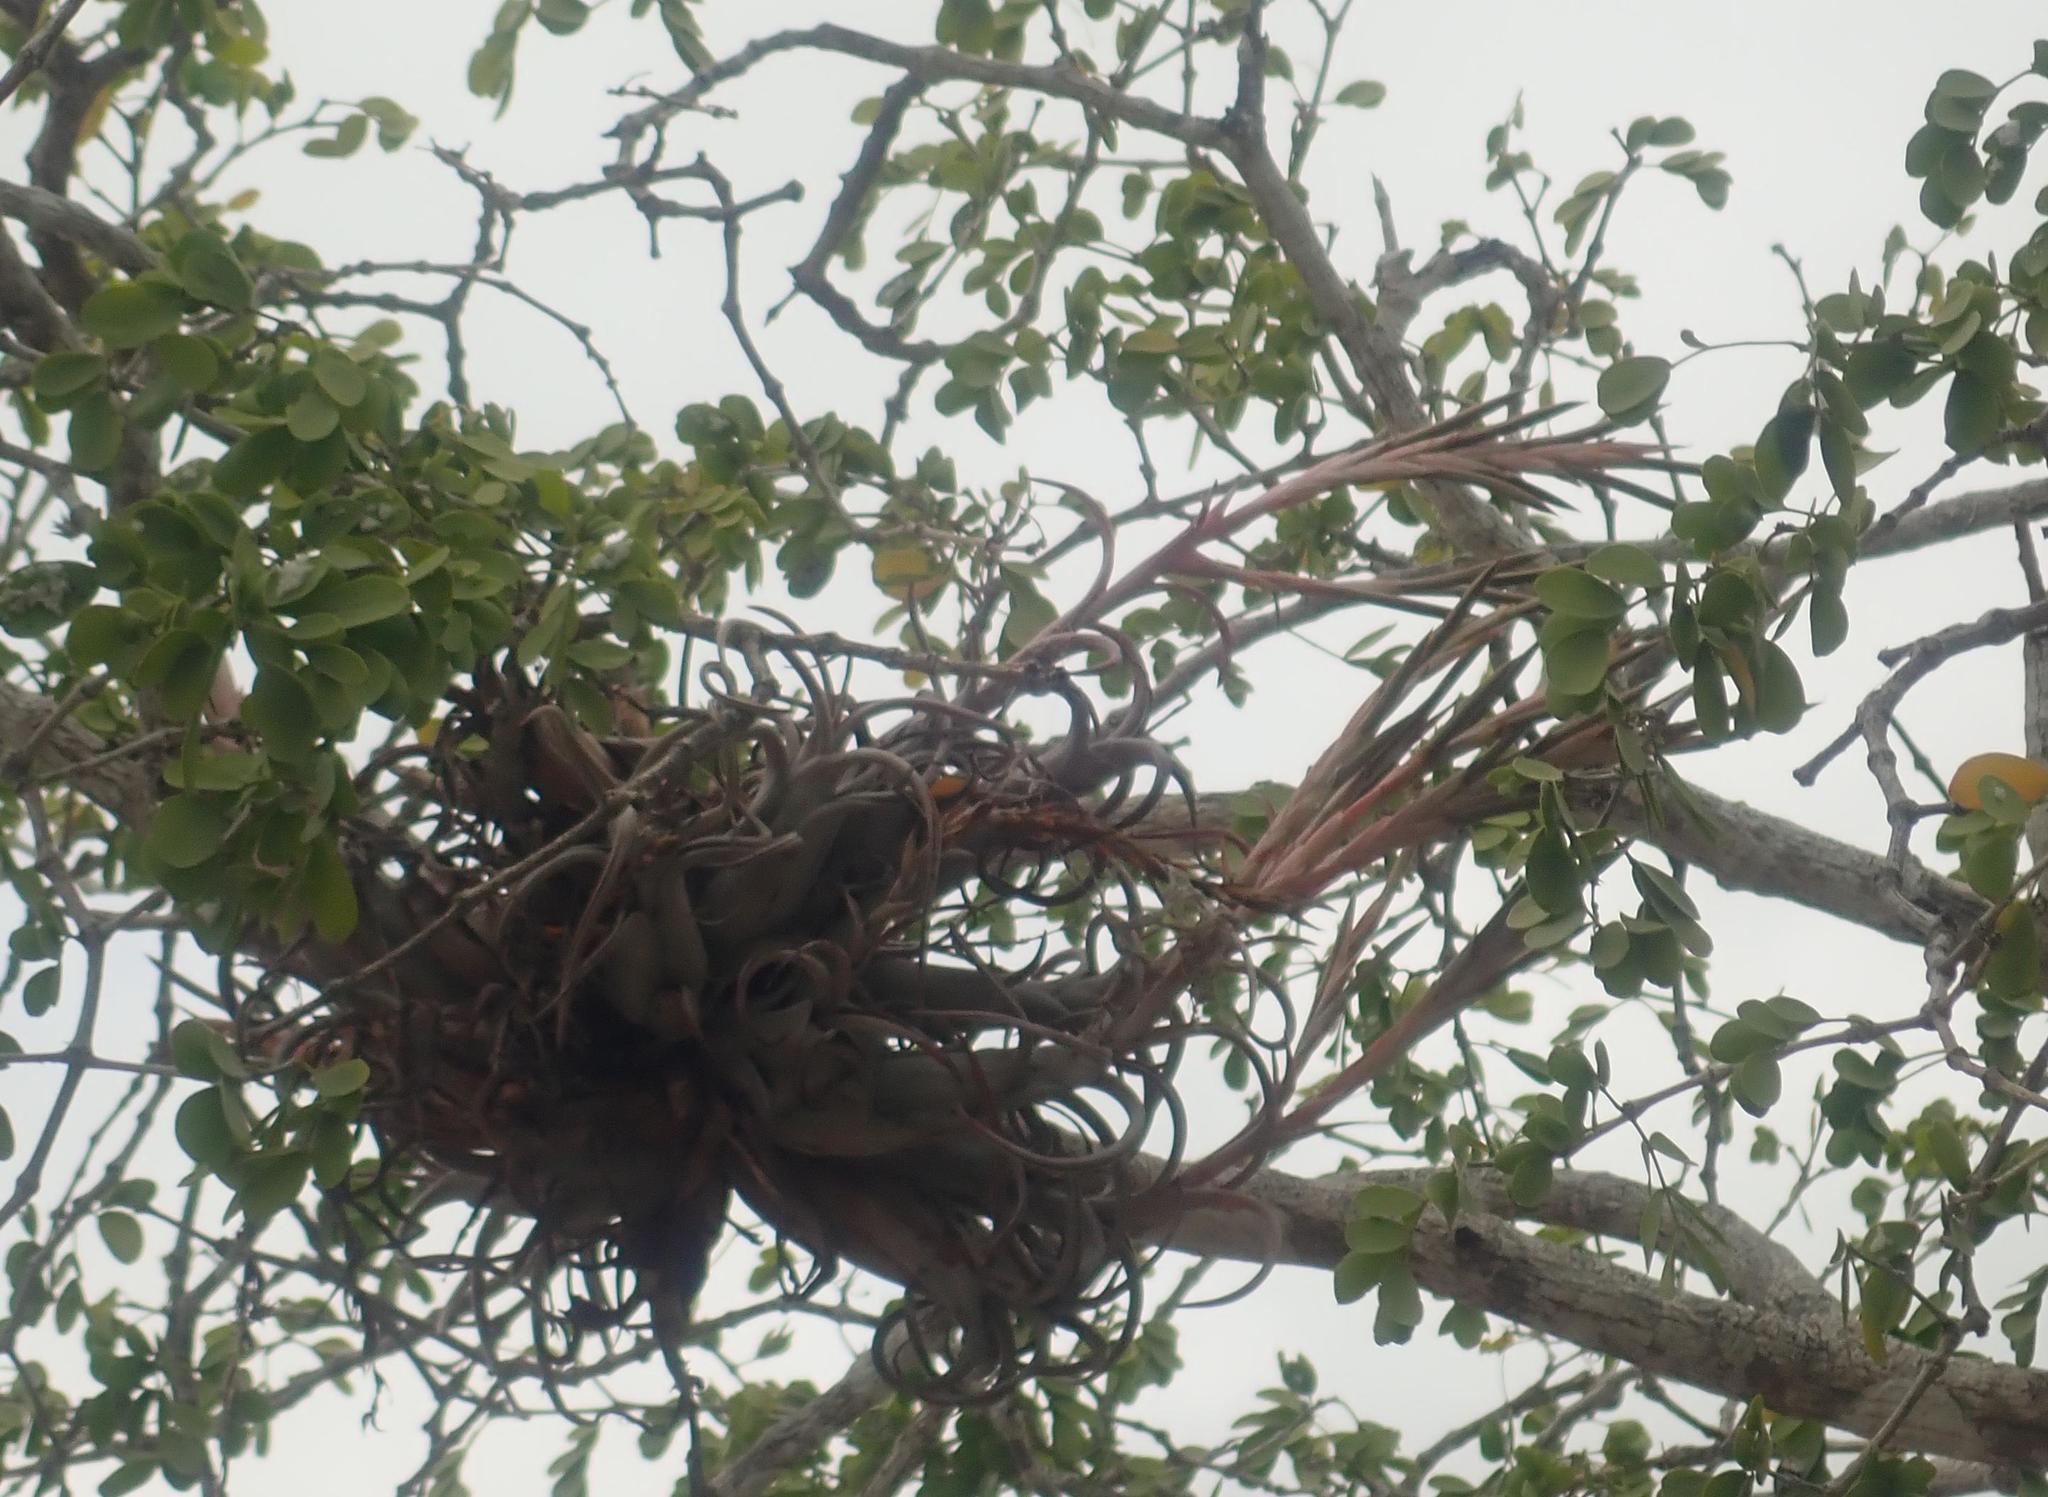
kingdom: Plantae
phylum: Tracheophyta
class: Liliopsida
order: Poales
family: Bromeliaceae
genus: Tillandsia
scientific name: Tillandsia paucifolia
